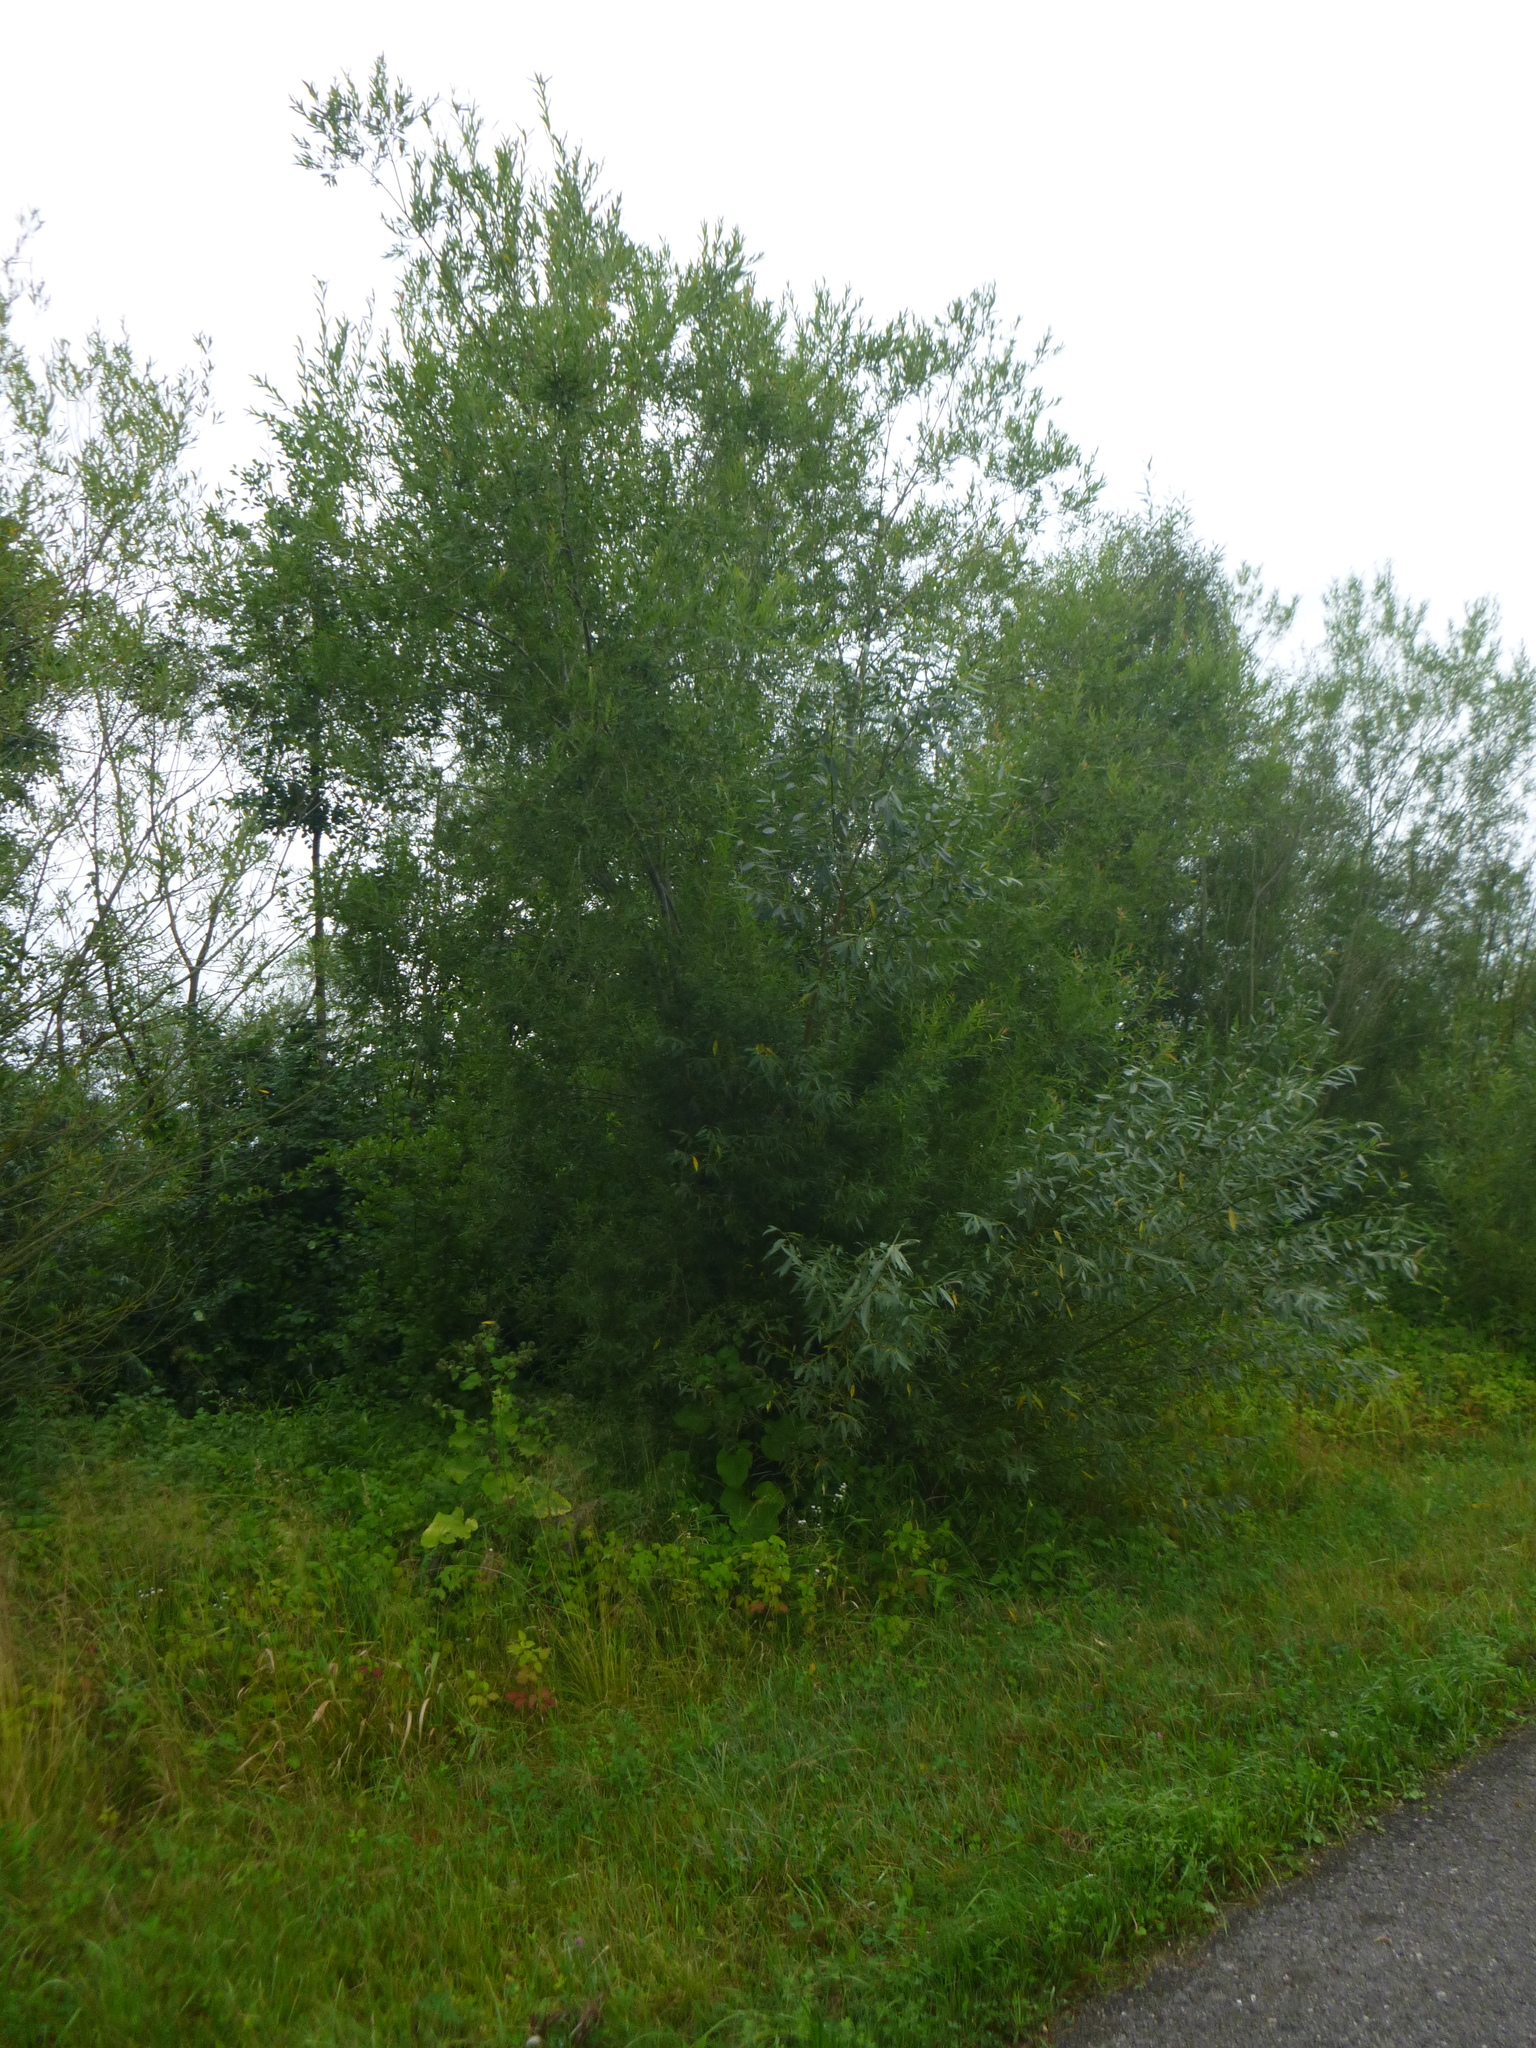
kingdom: Plantae
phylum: Tracheophyta
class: Magnoliopsida
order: Malpighiales
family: Salicaceae
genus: Salix
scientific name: Salix purpurea
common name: Purple willow
